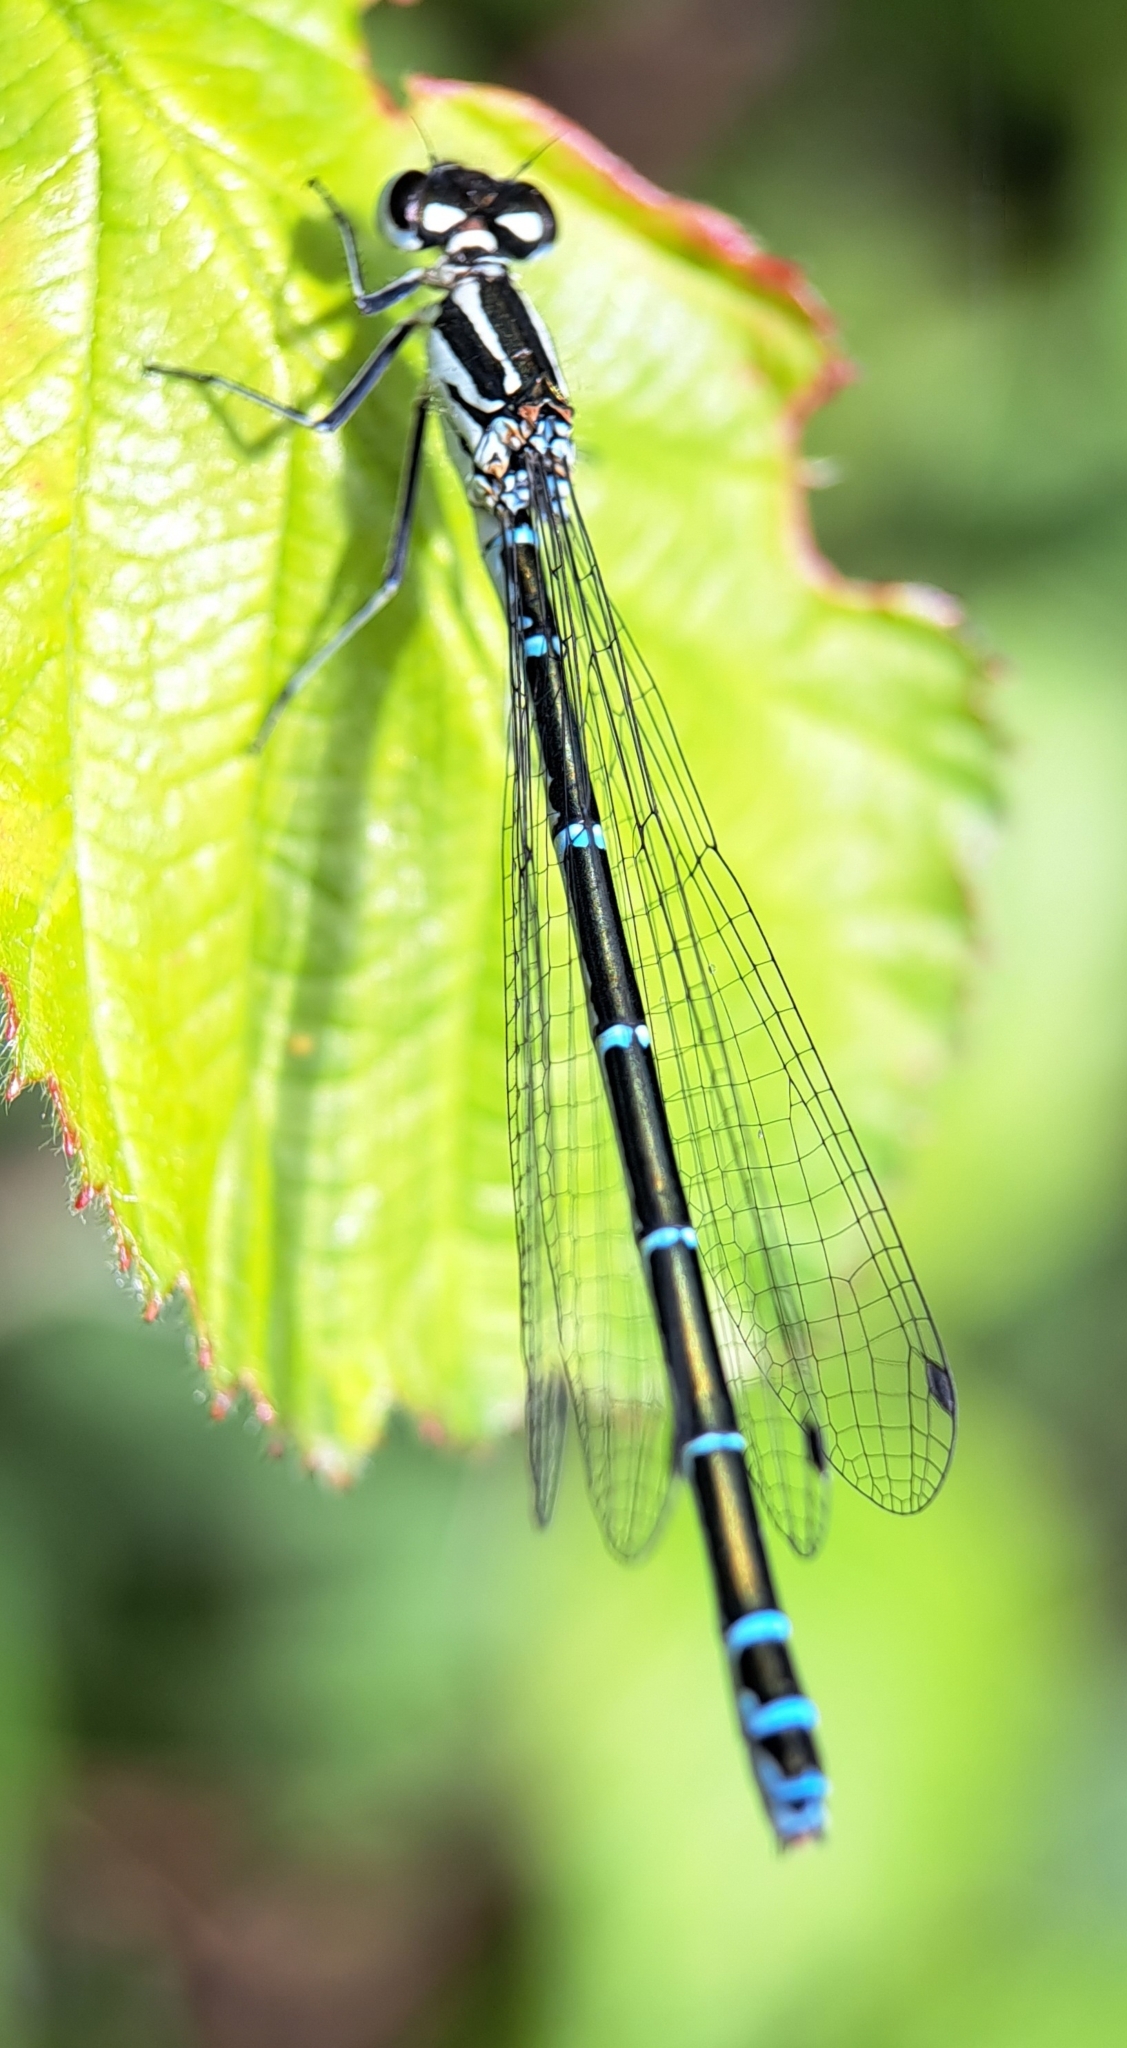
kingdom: Animalia
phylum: Arthropoda
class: Insecta
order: Odonata
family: Coenagrionidae
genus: Coenagrion
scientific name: Coenagrion puella
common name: Azure damselfly
